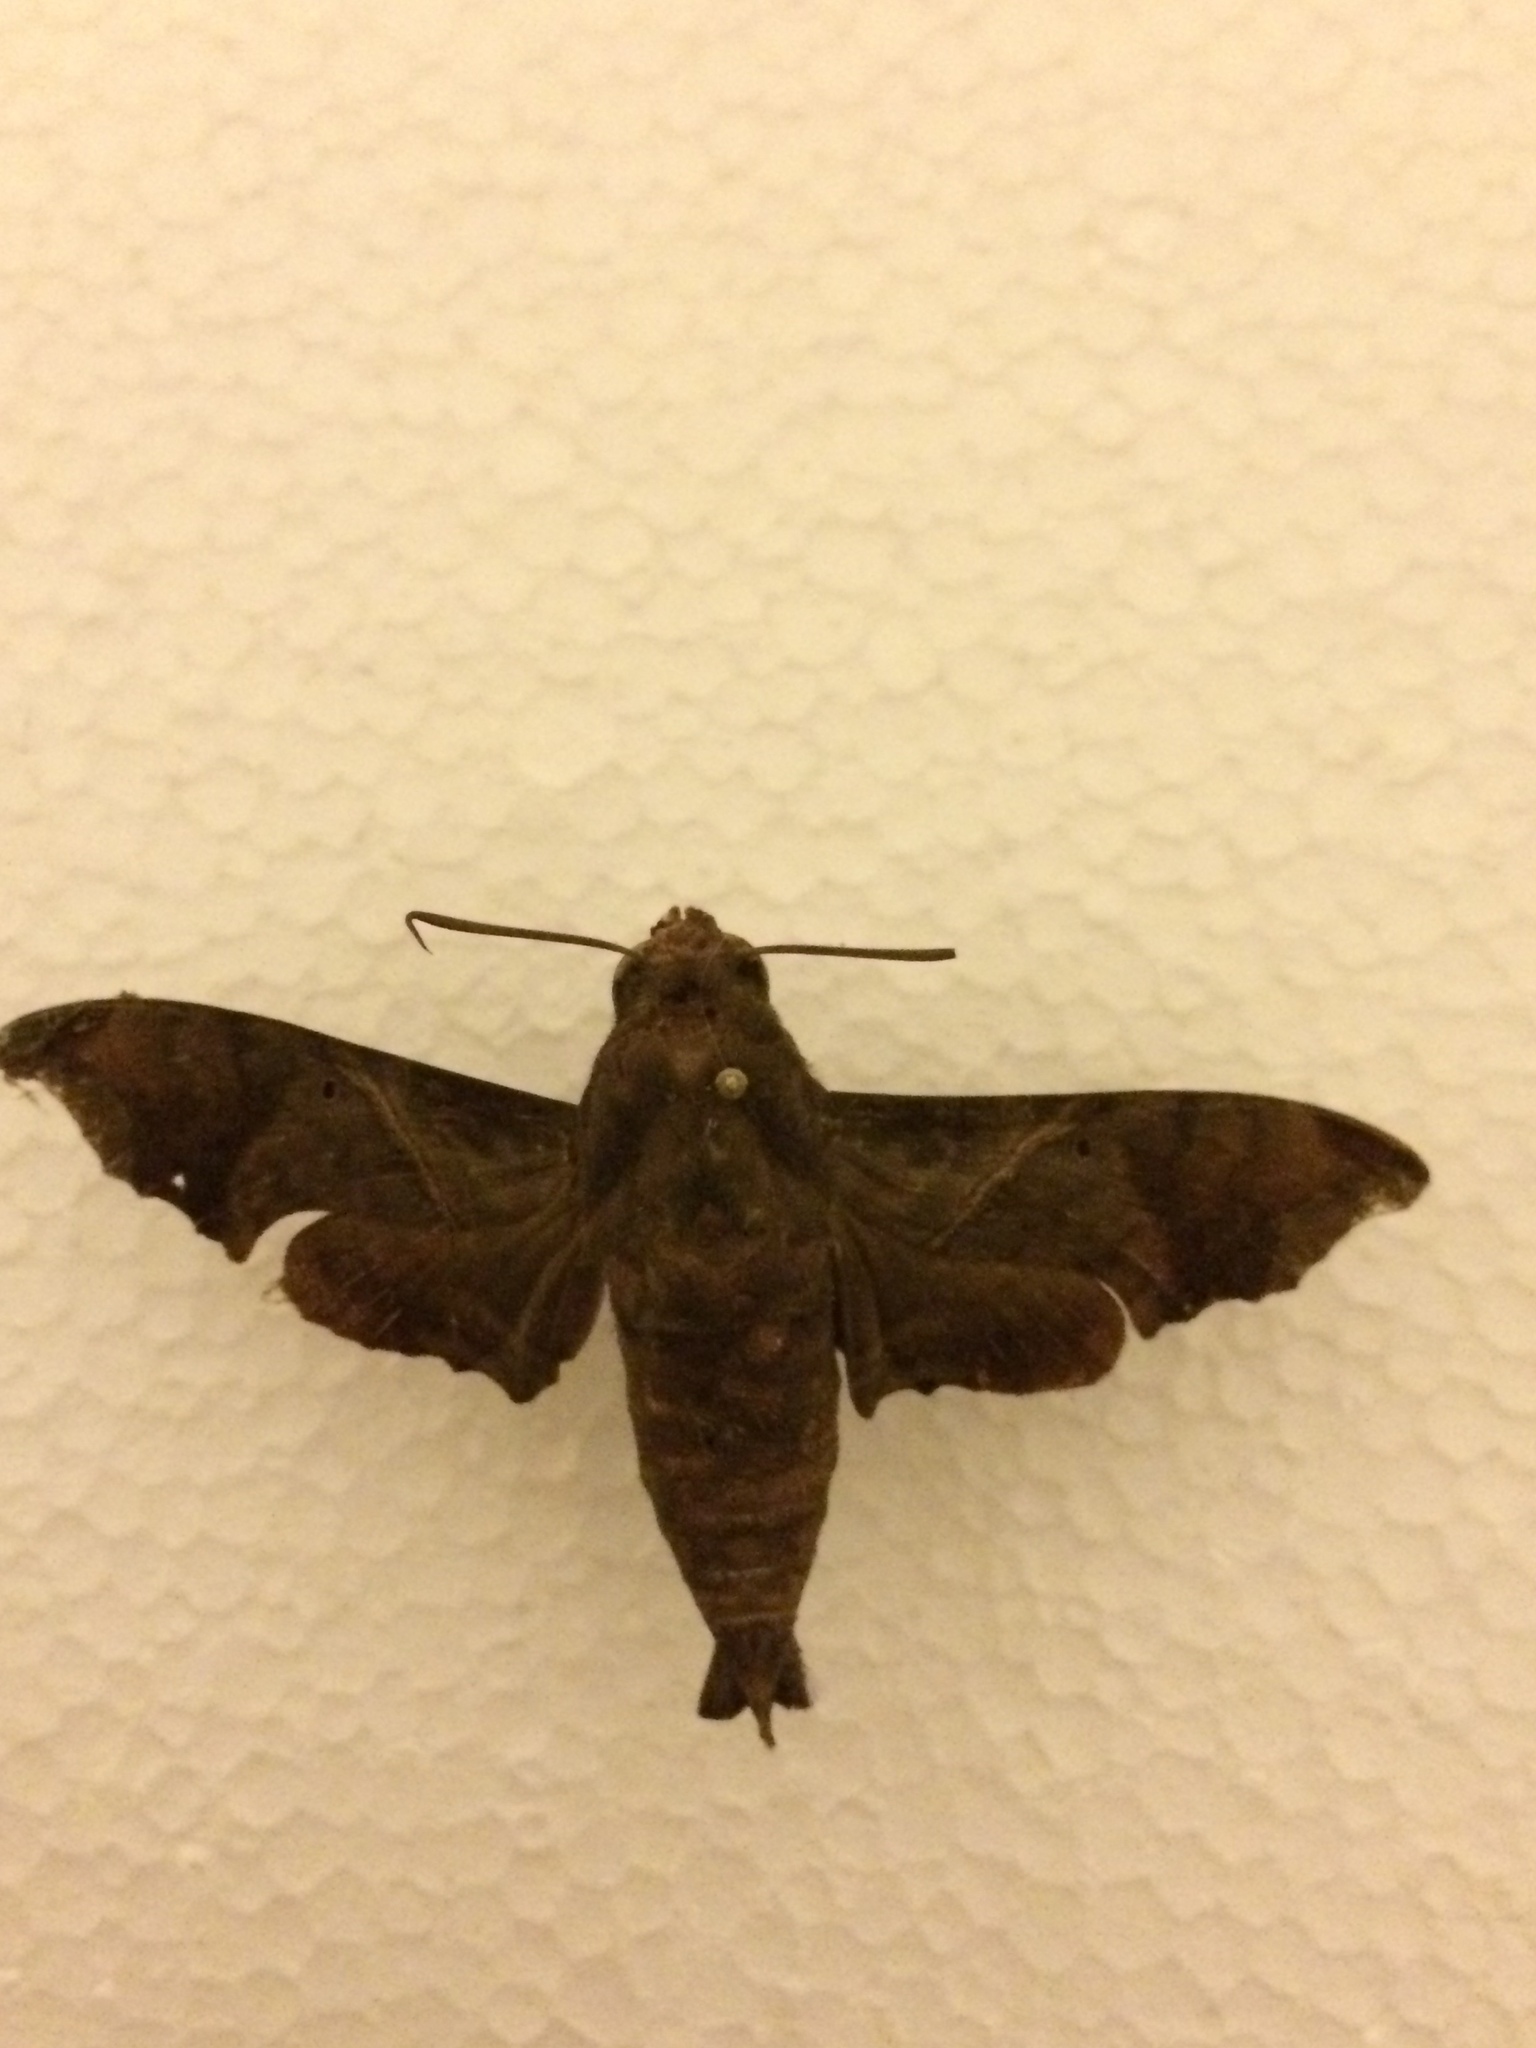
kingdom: Animalia
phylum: Arthropoda
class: Insecta
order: Lepidoptera
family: Sphingidae
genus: Enyo
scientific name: Enyo lugubris
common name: Mournful sphinx
